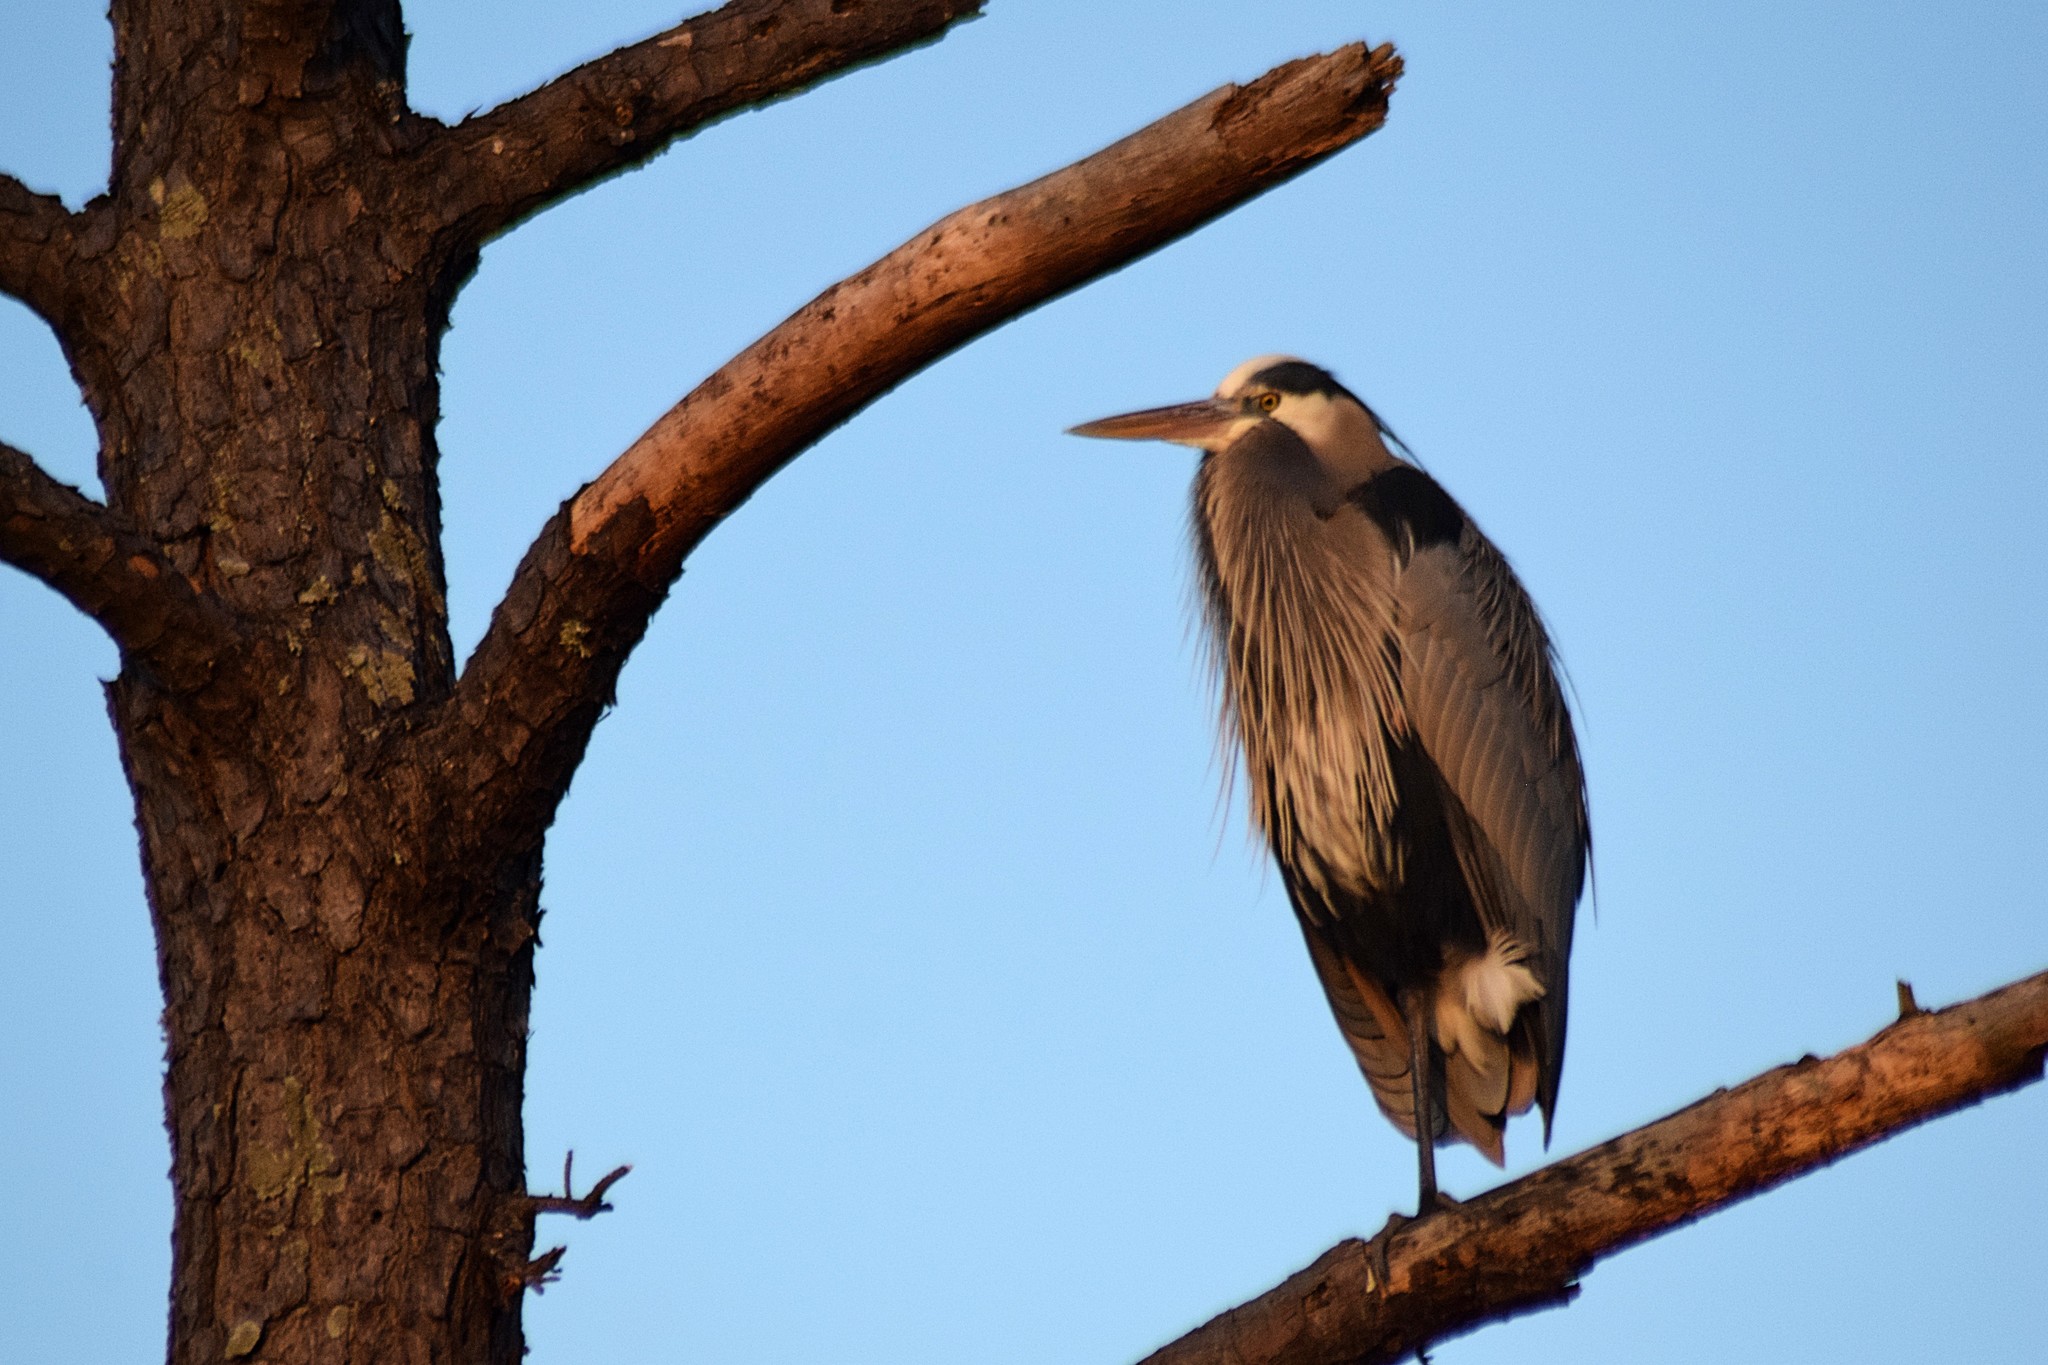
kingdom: Animalia
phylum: Chordata
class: Aves
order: Pelecaniformes
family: Ardeidae
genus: Ardea
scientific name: Ardea herodias
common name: Great blue heron
